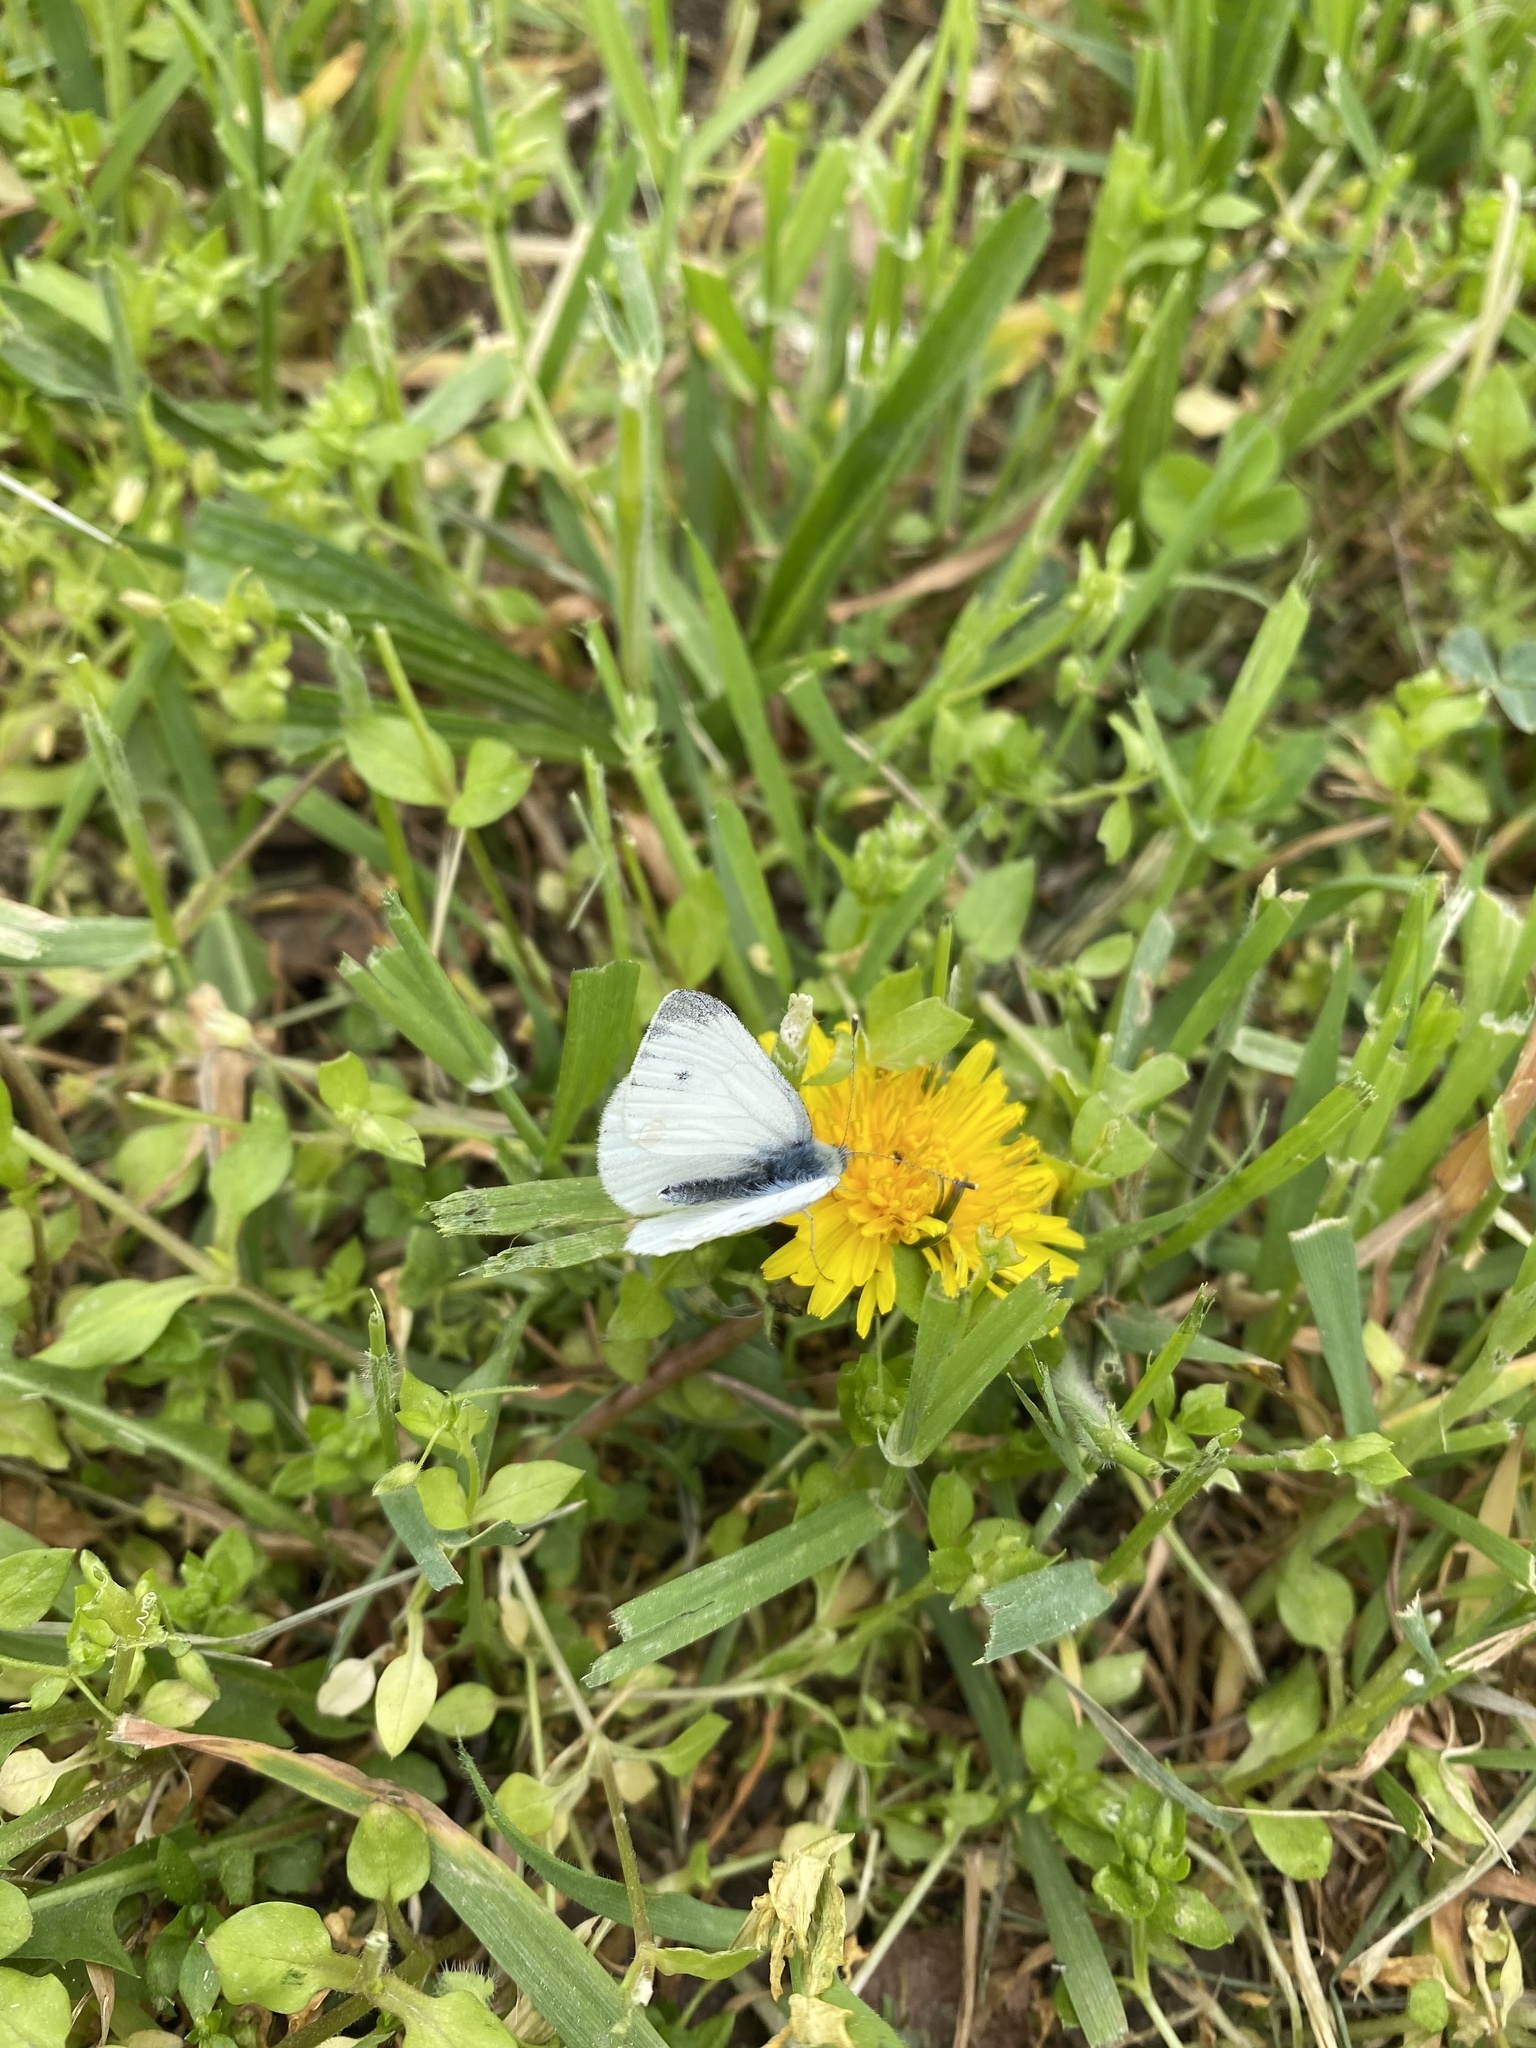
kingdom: Animalia
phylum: Arthropoda
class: Insecta
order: Lepidoptera
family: Pieridae
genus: Pieris
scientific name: Pieris napi
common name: Green-veined white
